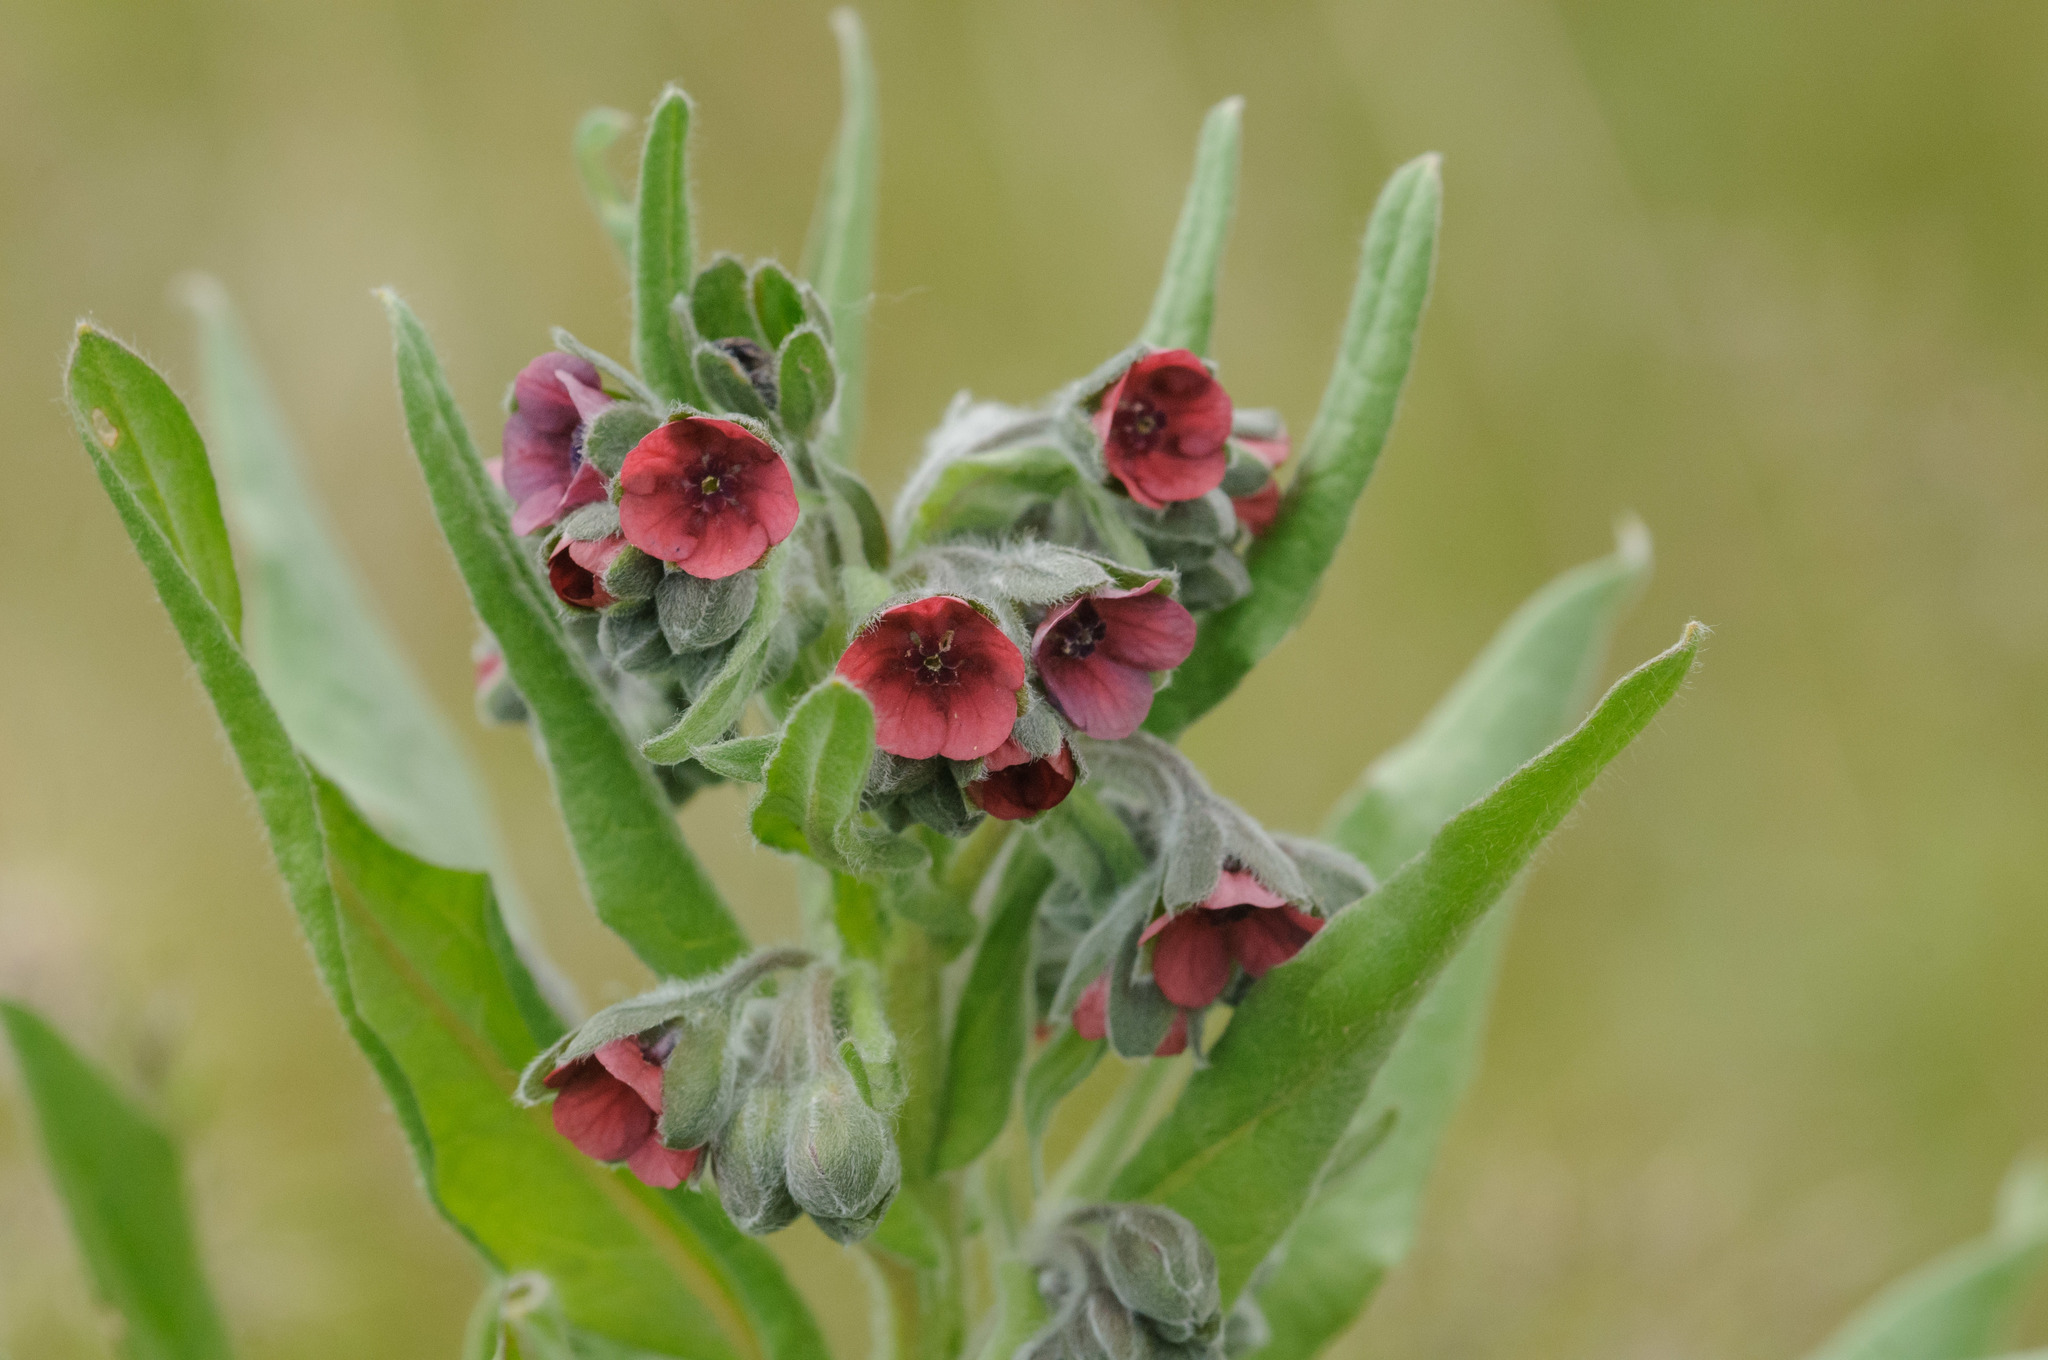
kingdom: Plantae
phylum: Tracheophyta
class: Magnoliopsida
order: Boraginales
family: Boraginaceae
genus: Cynoglossum
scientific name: Cynoglossum officinale
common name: Hound's-tongue
